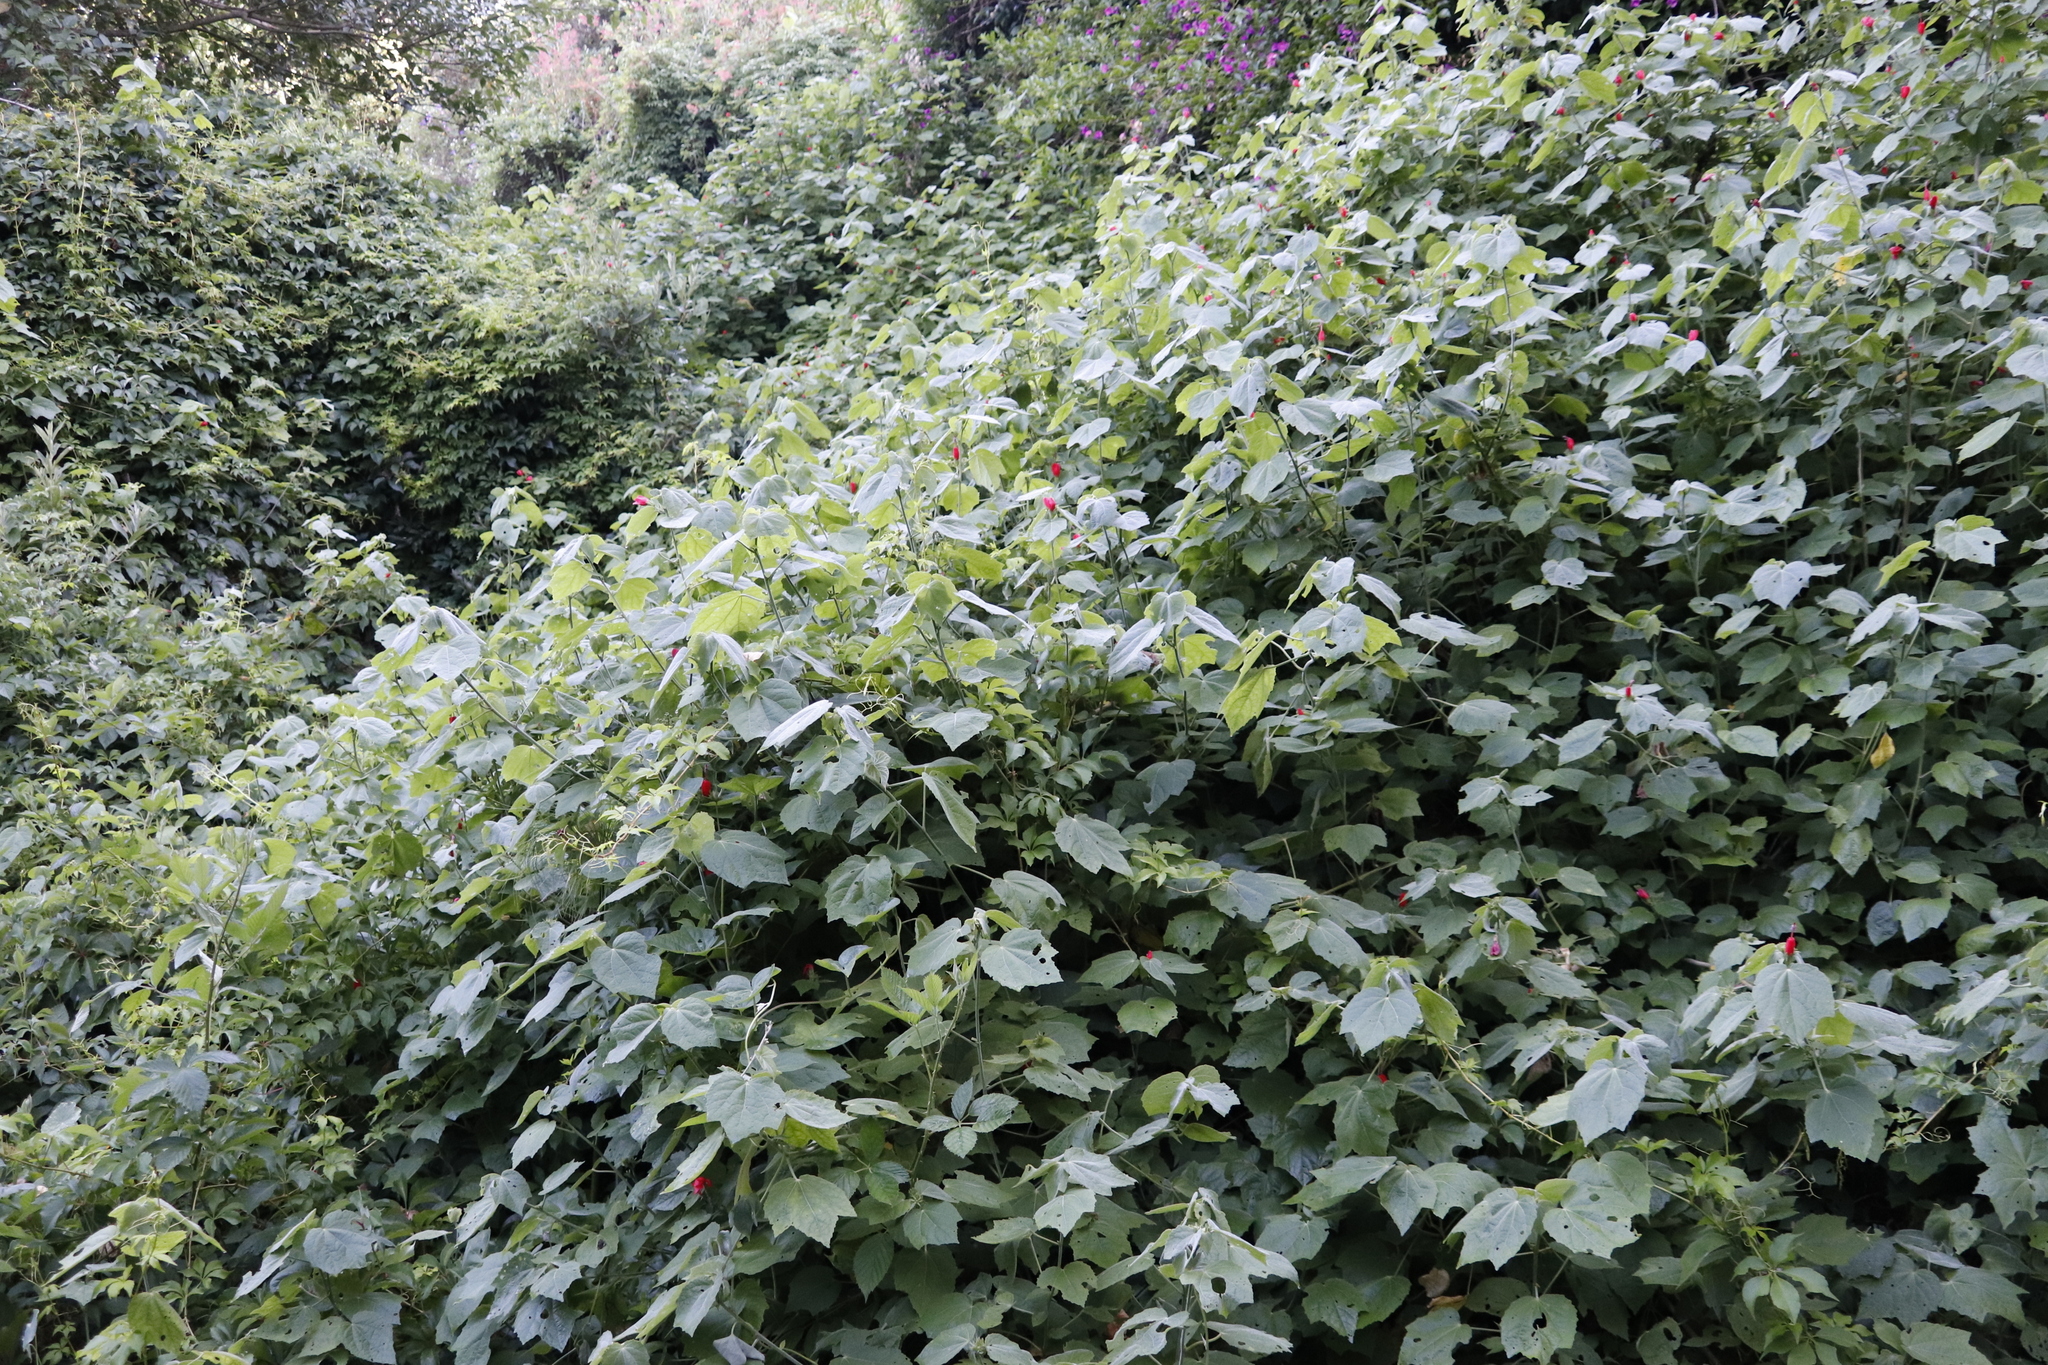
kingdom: Plantae
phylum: Tracheophyta
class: Magnoliopsida
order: Malvales
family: Malvaceae
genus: Malvaviscus
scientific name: Malvaviscus arboreus
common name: Wax mallow
